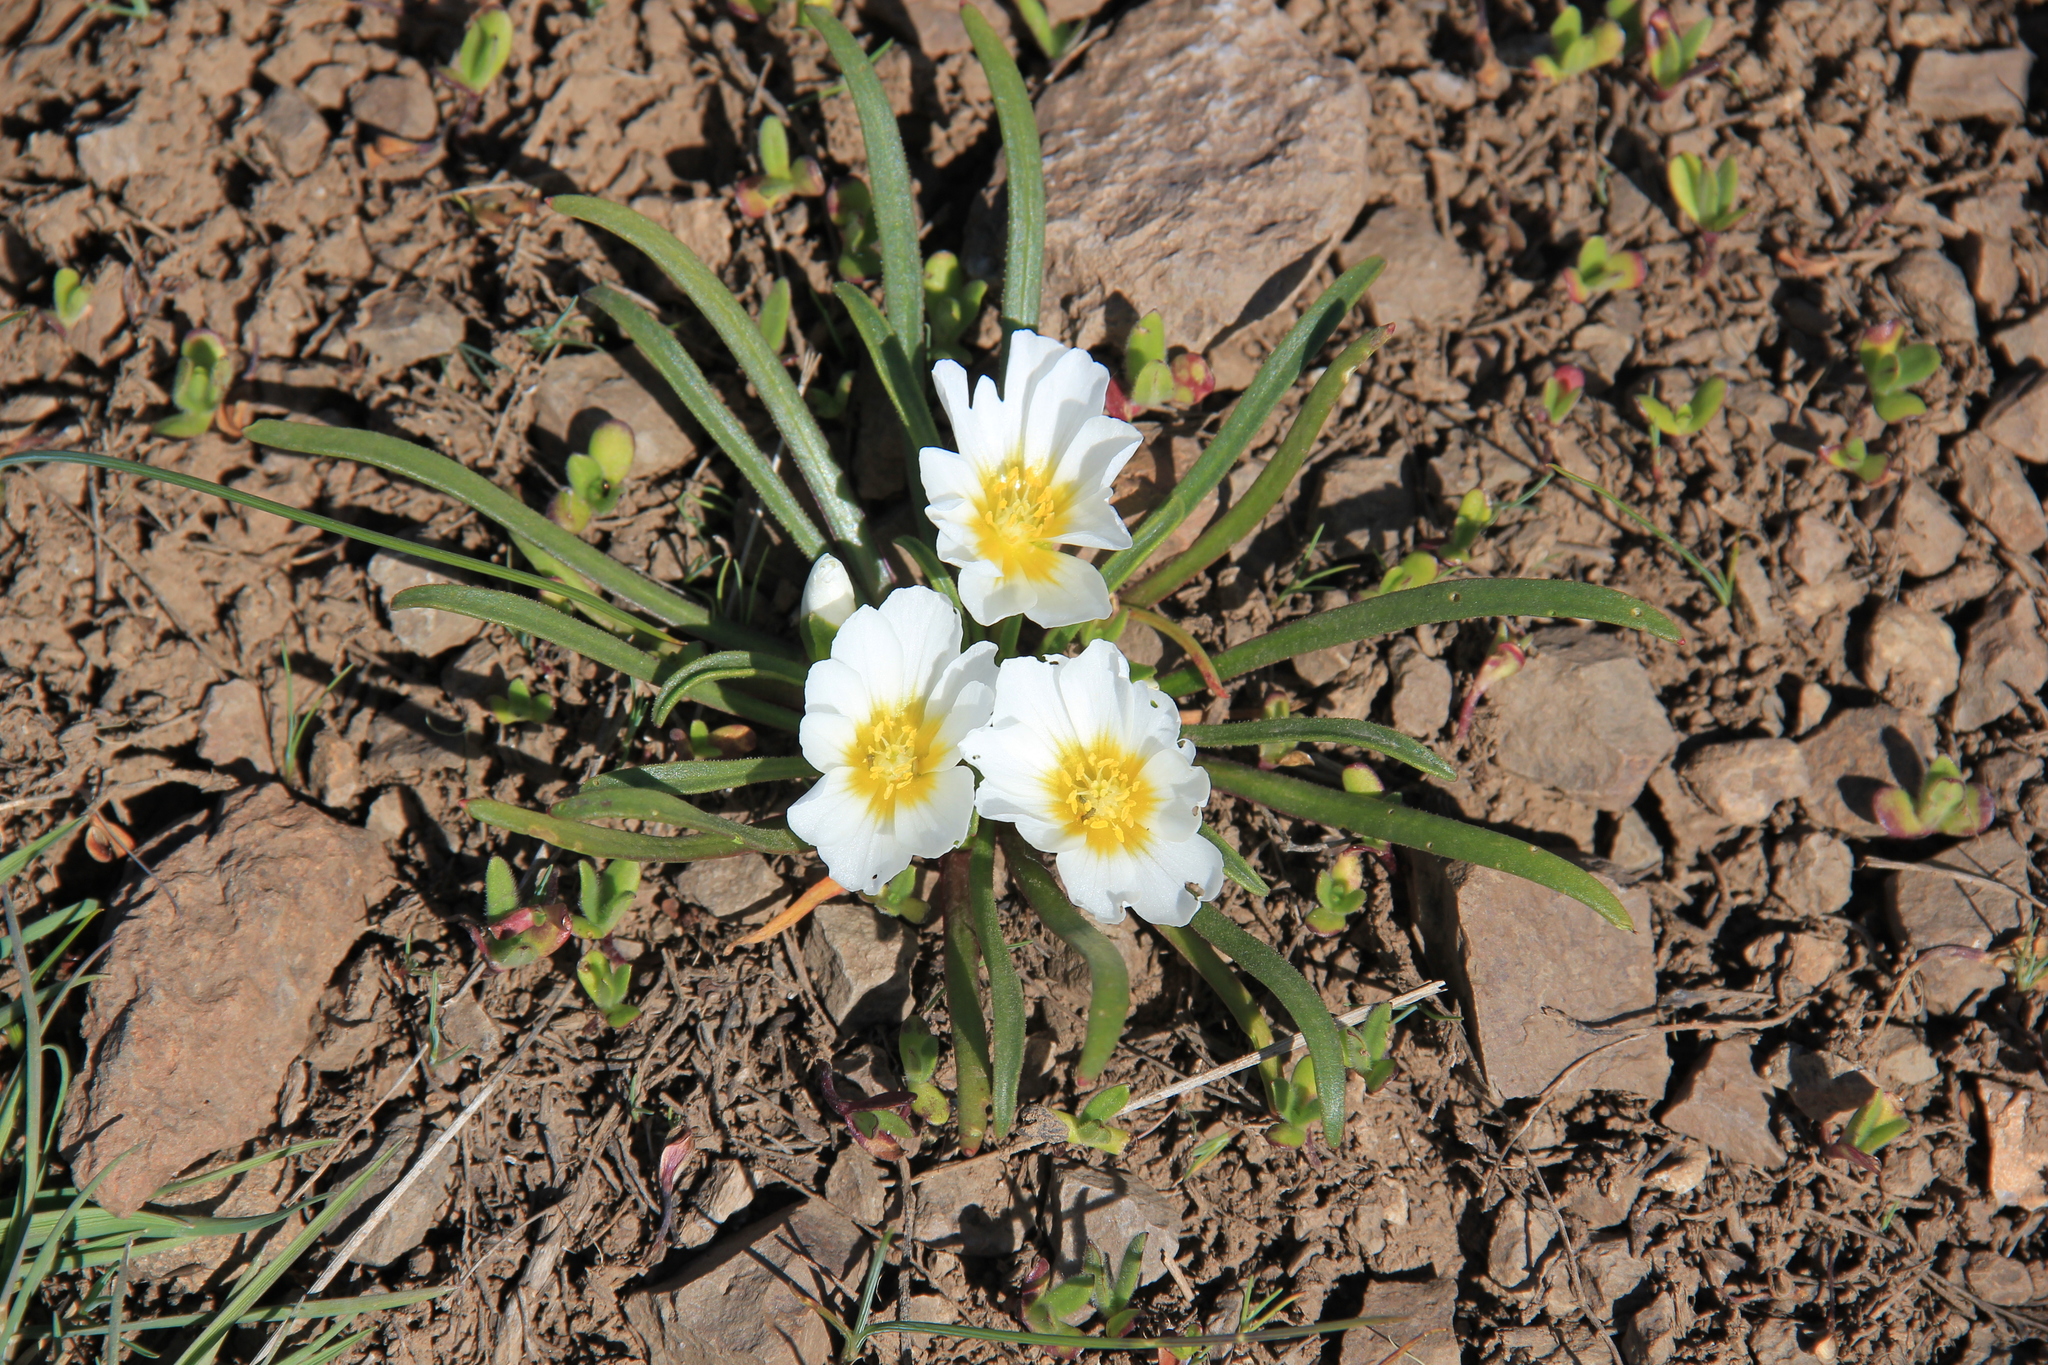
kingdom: Plantae
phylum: Tracheophyta
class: Magnoliopsida
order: Caryophyllales
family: Montiaceae
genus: Calandrinia
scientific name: Calandrinia affinis
